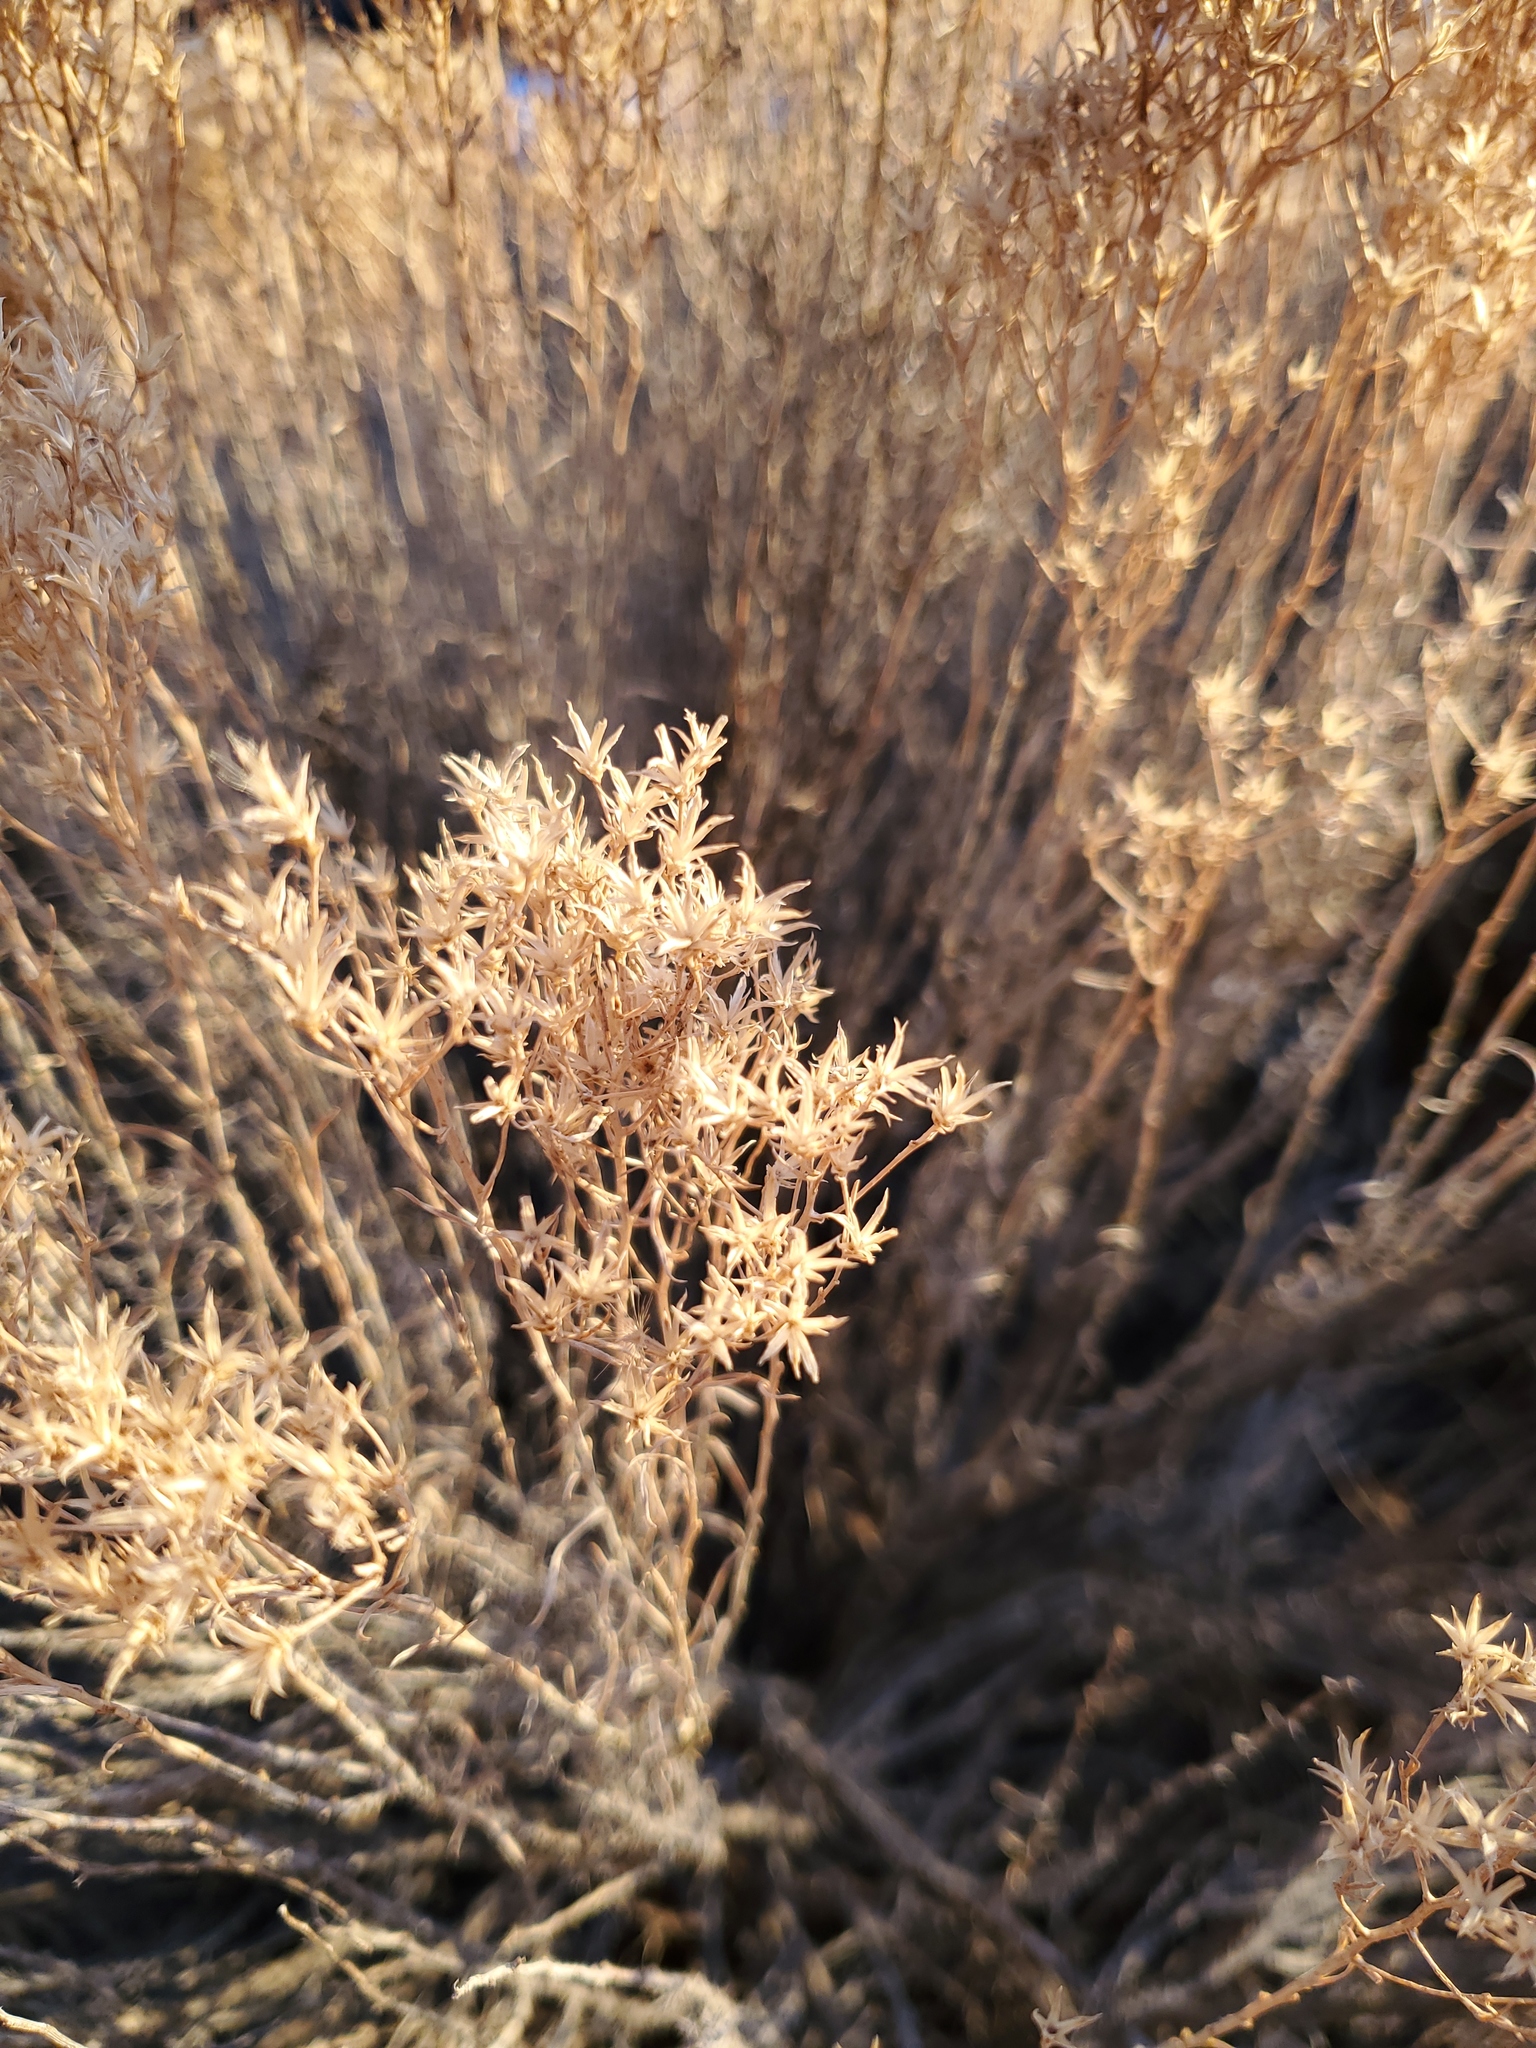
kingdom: Plantae
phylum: Tracheophyta
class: Magnoliopsida
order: Asterales
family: Asteraceae
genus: Gutierrezia
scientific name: Gutierrezia sarothrae
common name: Broom snakeweed
